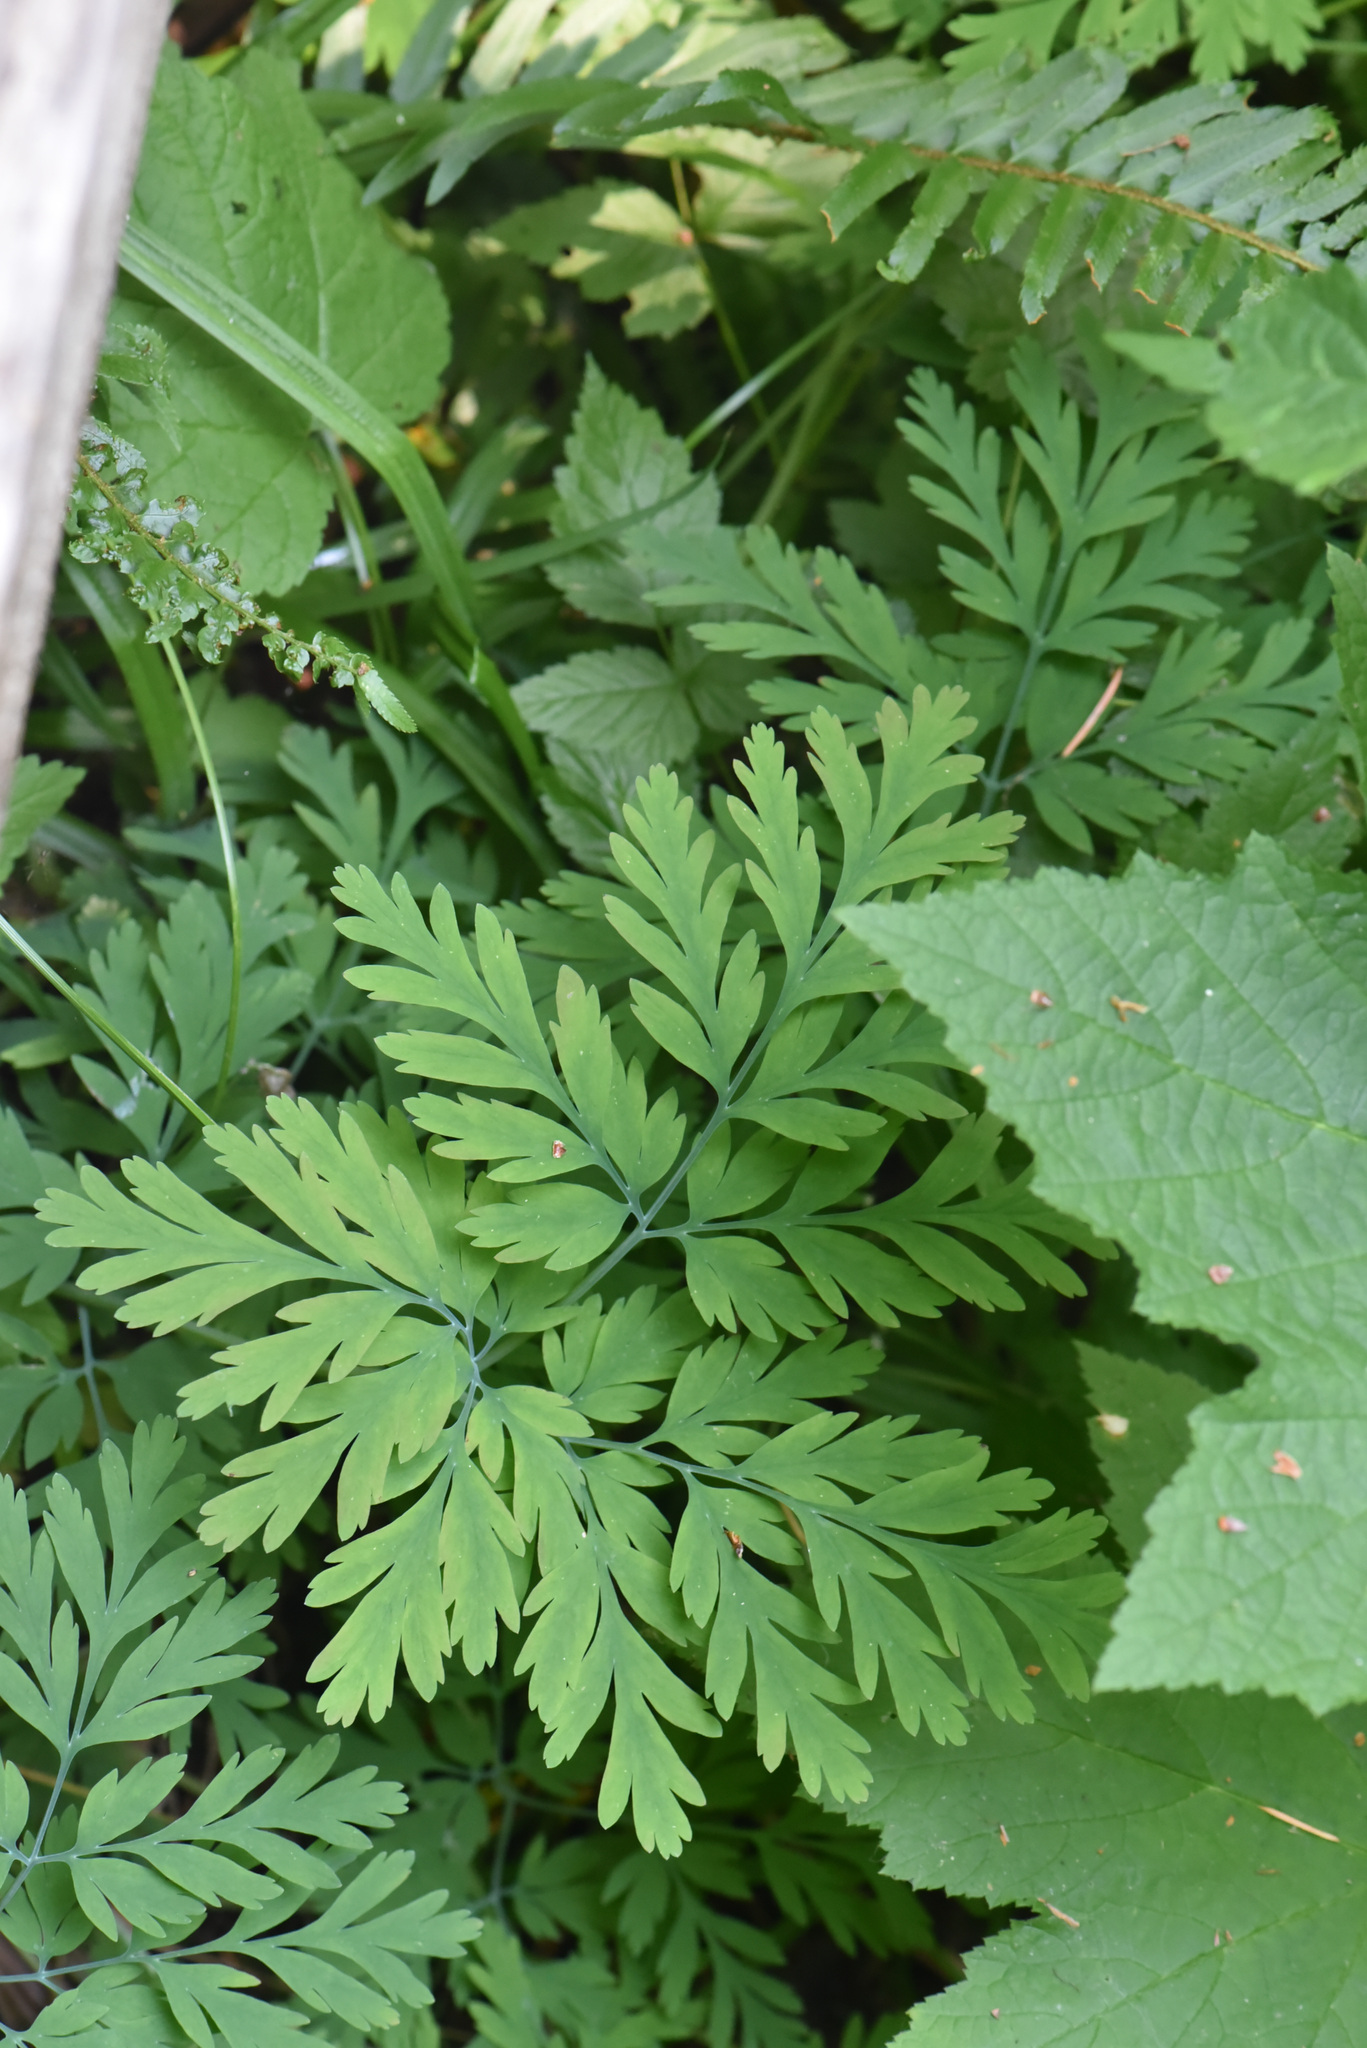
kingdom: Plantae
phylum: Tracheophyta
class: Magnoliopsida
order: Ranunculales
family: Papaveraceae
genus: Dicentra
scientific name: Dicentra formosa
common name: Bleeding-heart
